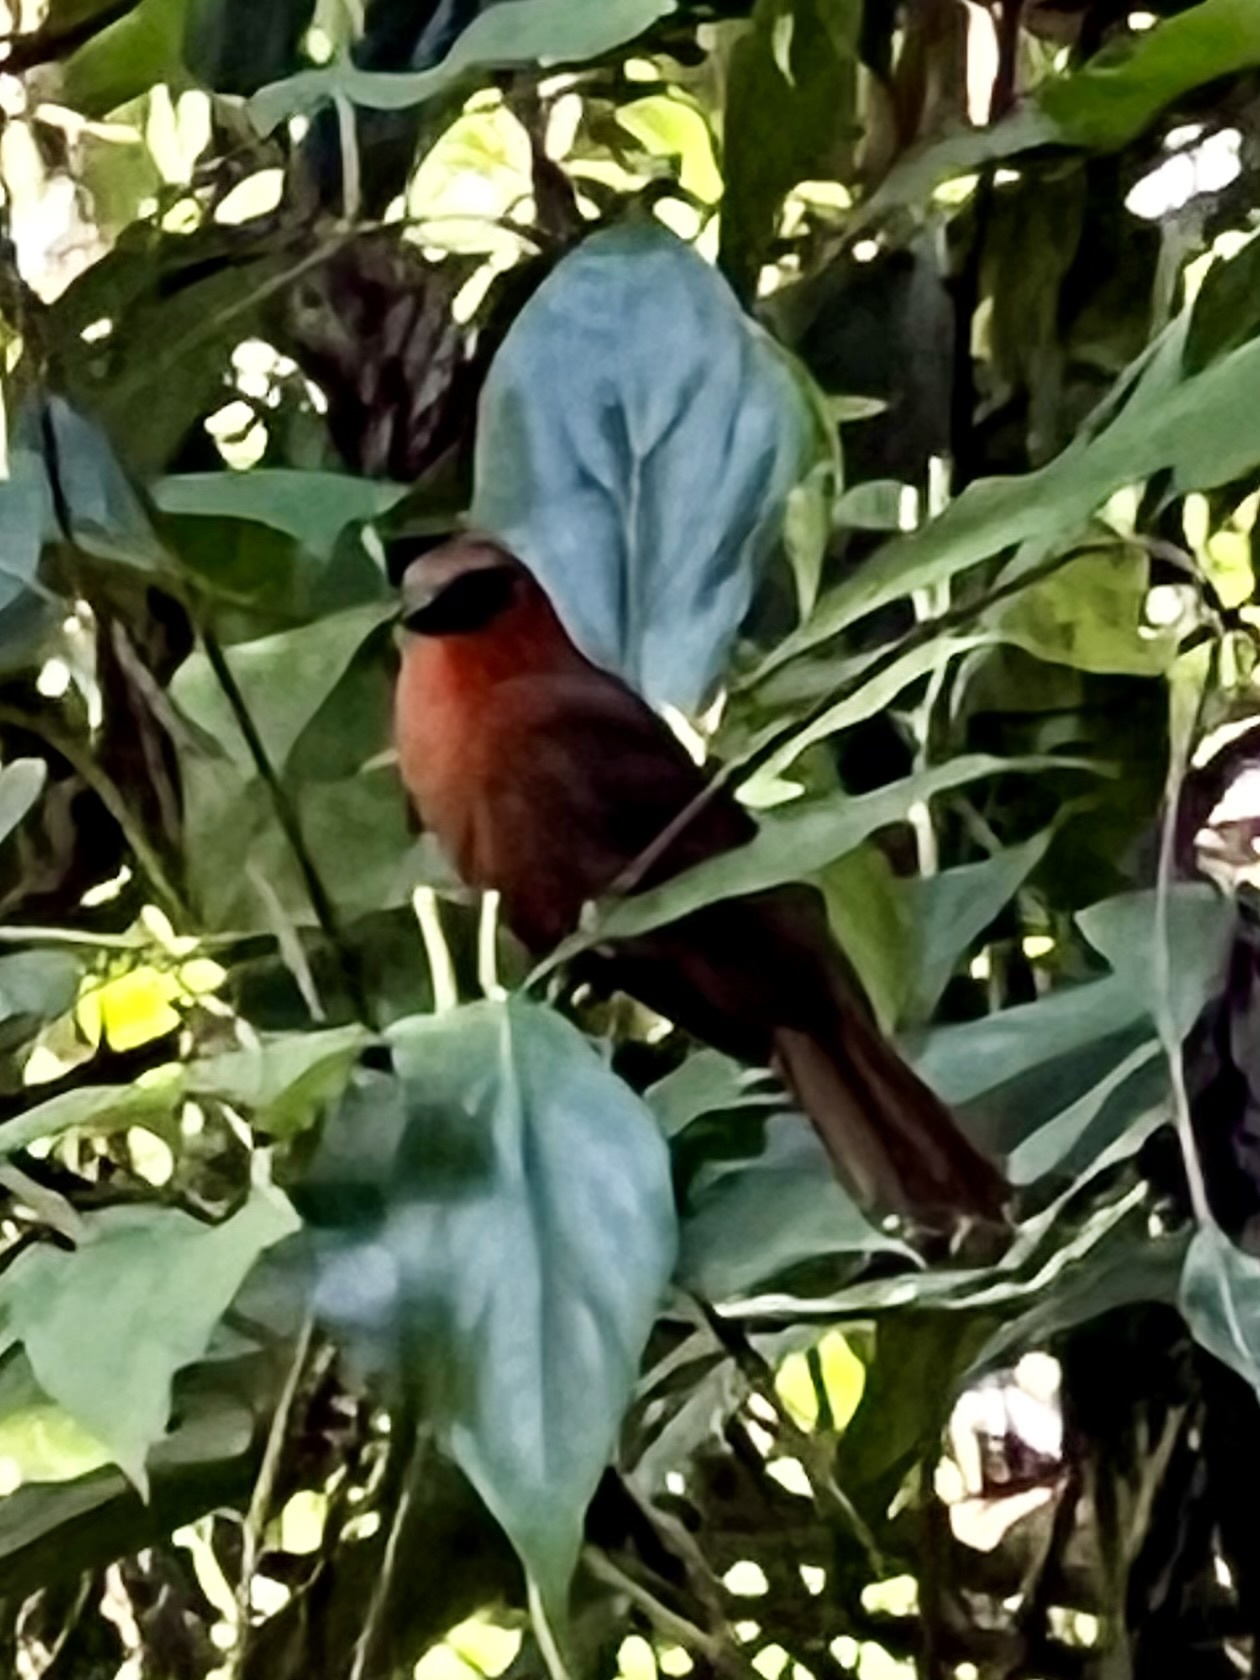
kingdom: Animalia
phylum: Chordata
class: Aves
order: Passeriformes
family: Cardinalidae
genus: Habia
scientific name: Habia fuscicauda
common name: Red-throated ant-tanager
